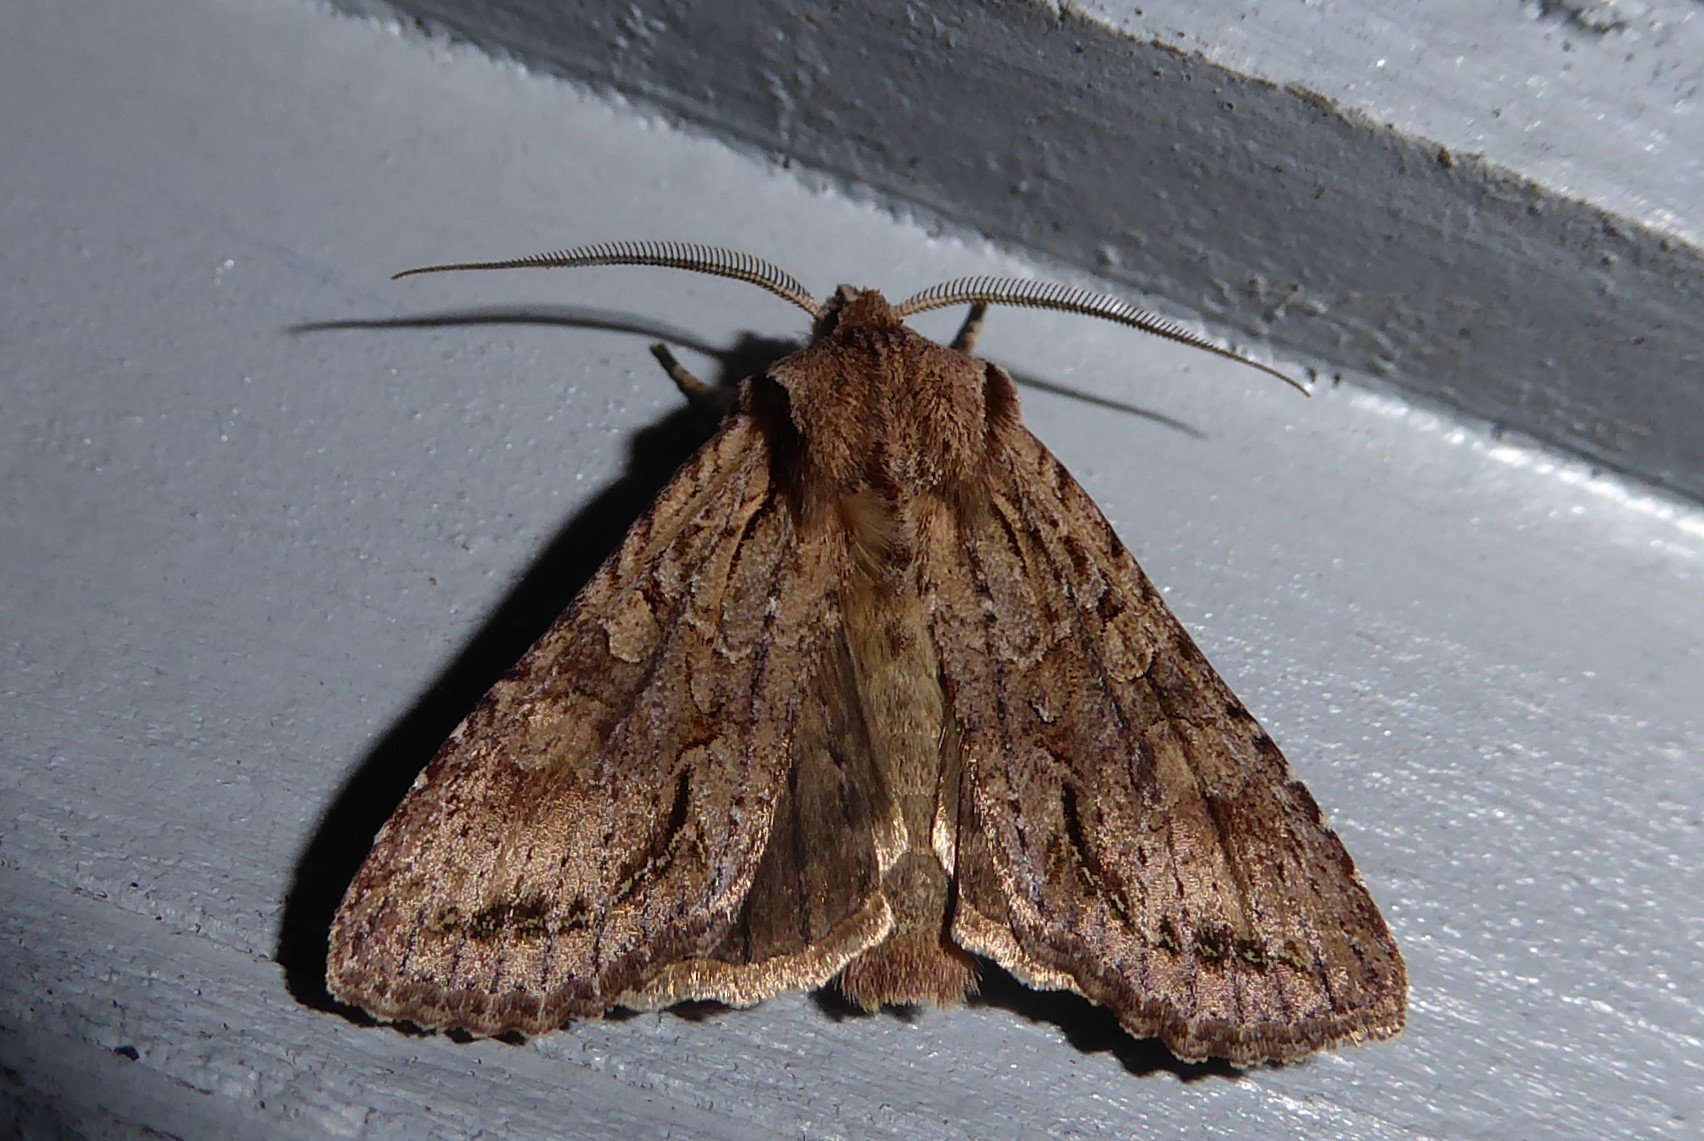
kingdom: Animalia
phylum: Arthropoda
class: Insecta
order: Lepidoptera
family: Noctuidae
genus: Ichneutica
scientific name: Ichneutica mutans
